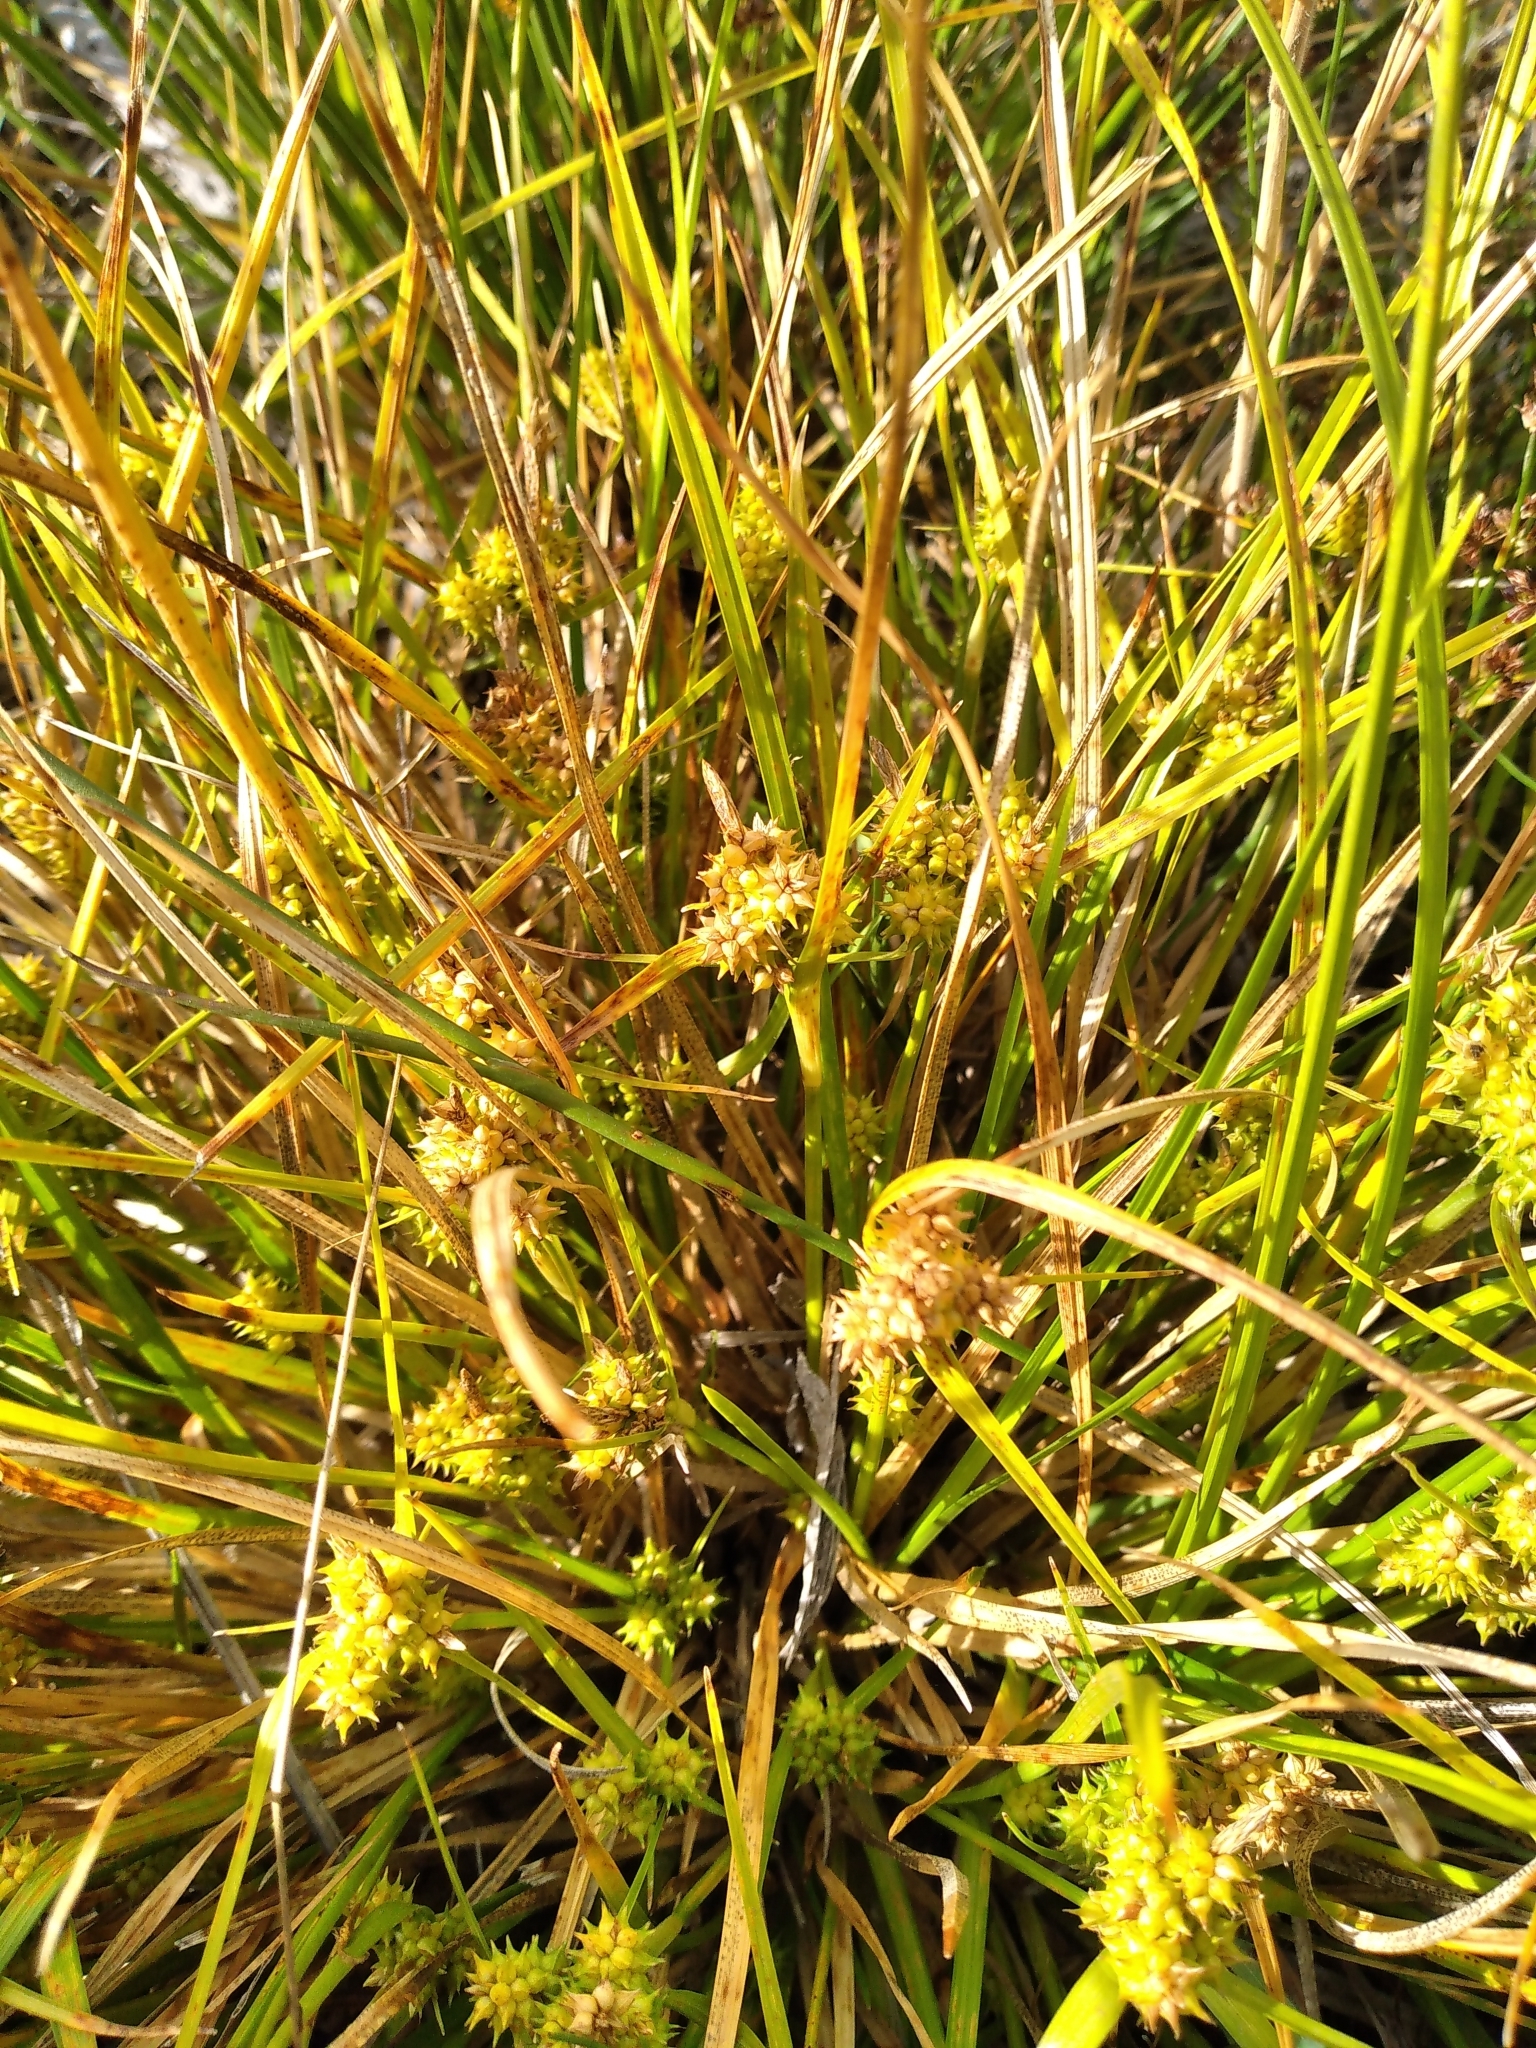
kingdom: Plantae
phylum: Tracheophyta
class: Liliopsida
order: Poales
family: Cyperaceae
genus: Carex
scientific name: Carex flaviformis
